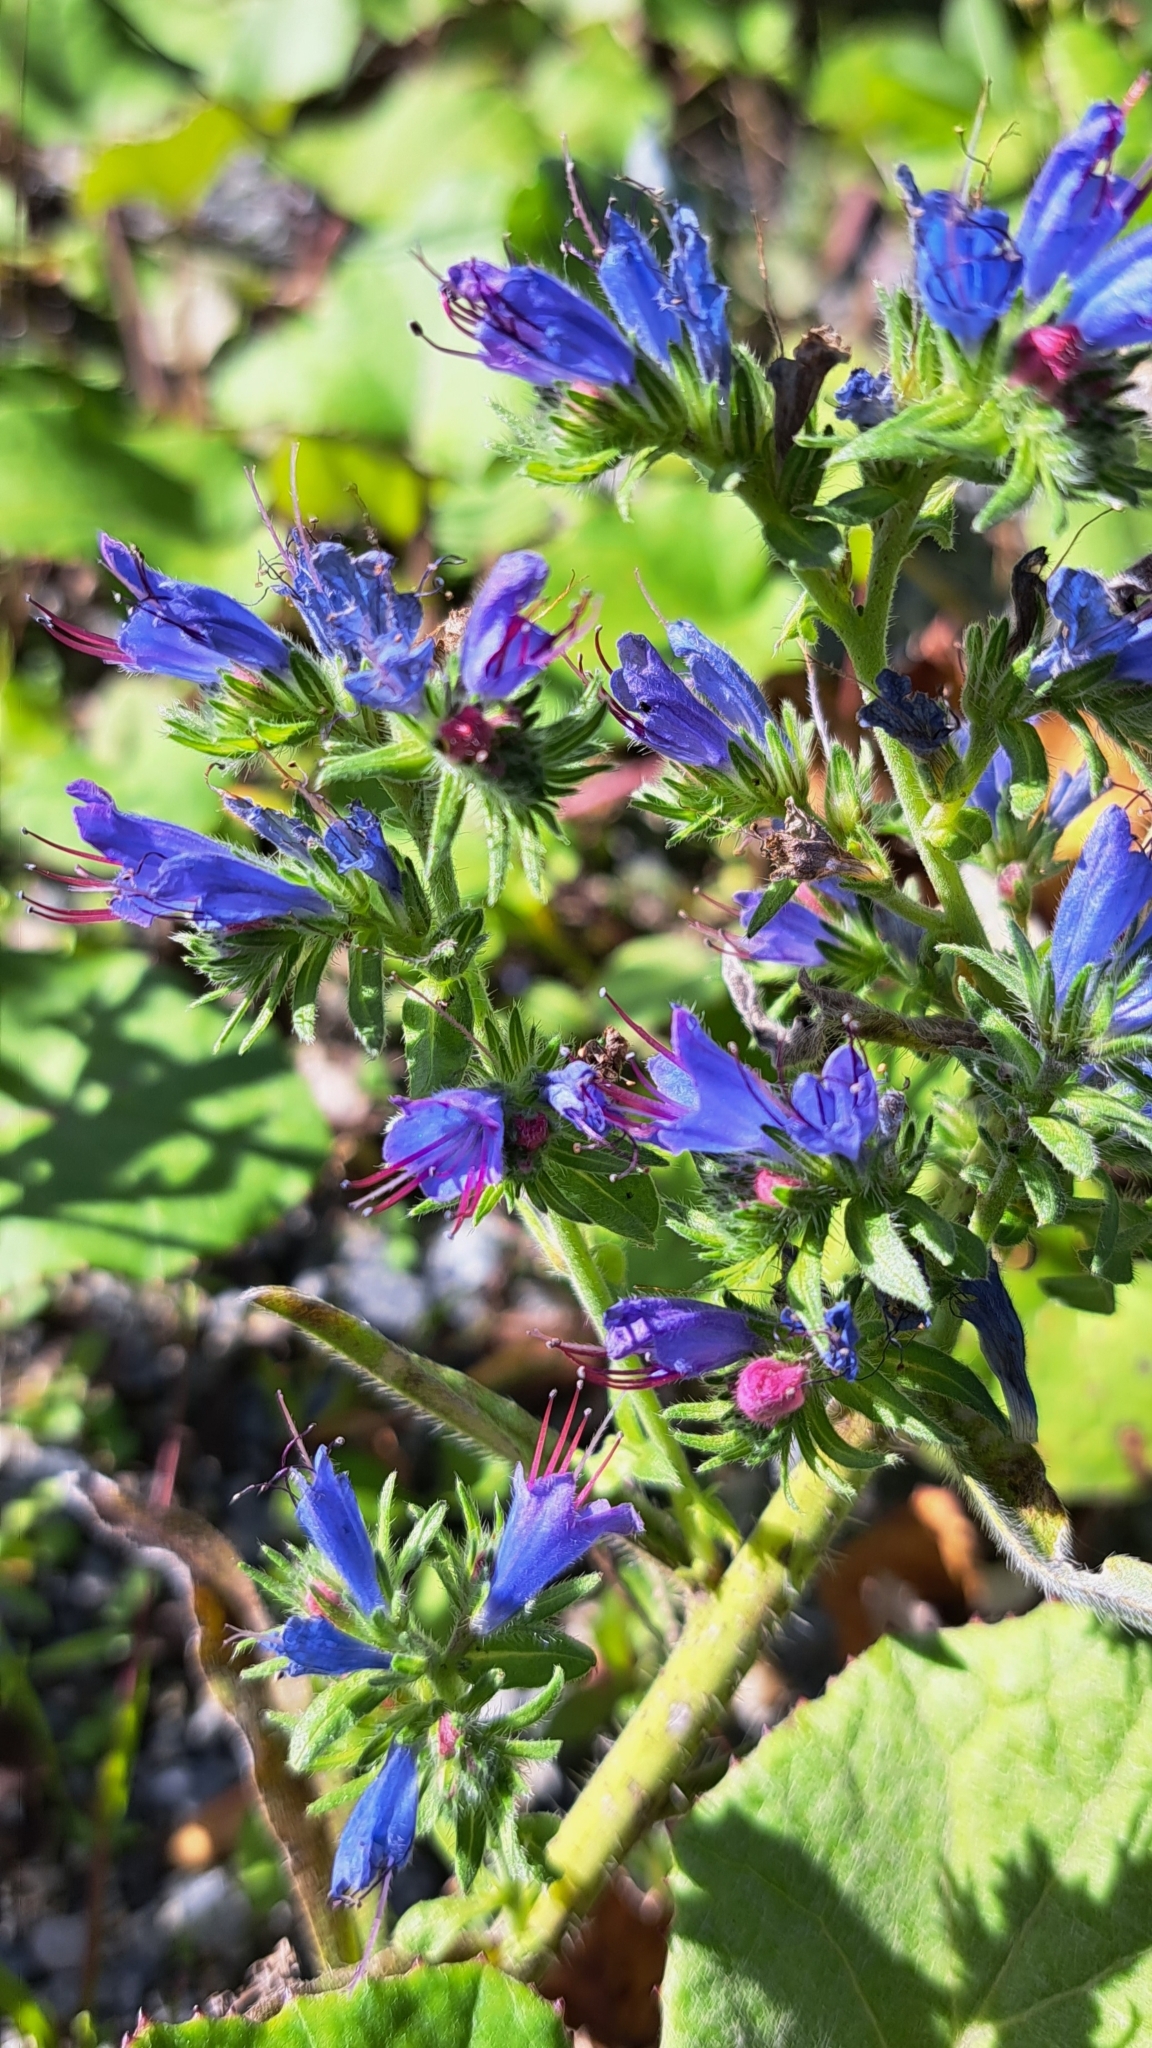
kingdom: Plantae
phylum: Tracheophyta
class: Magnoliopsida
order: Boraginales
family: Boraginaceae
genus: Echium
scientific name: Echium vulgare
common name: Common viper's bugloss
